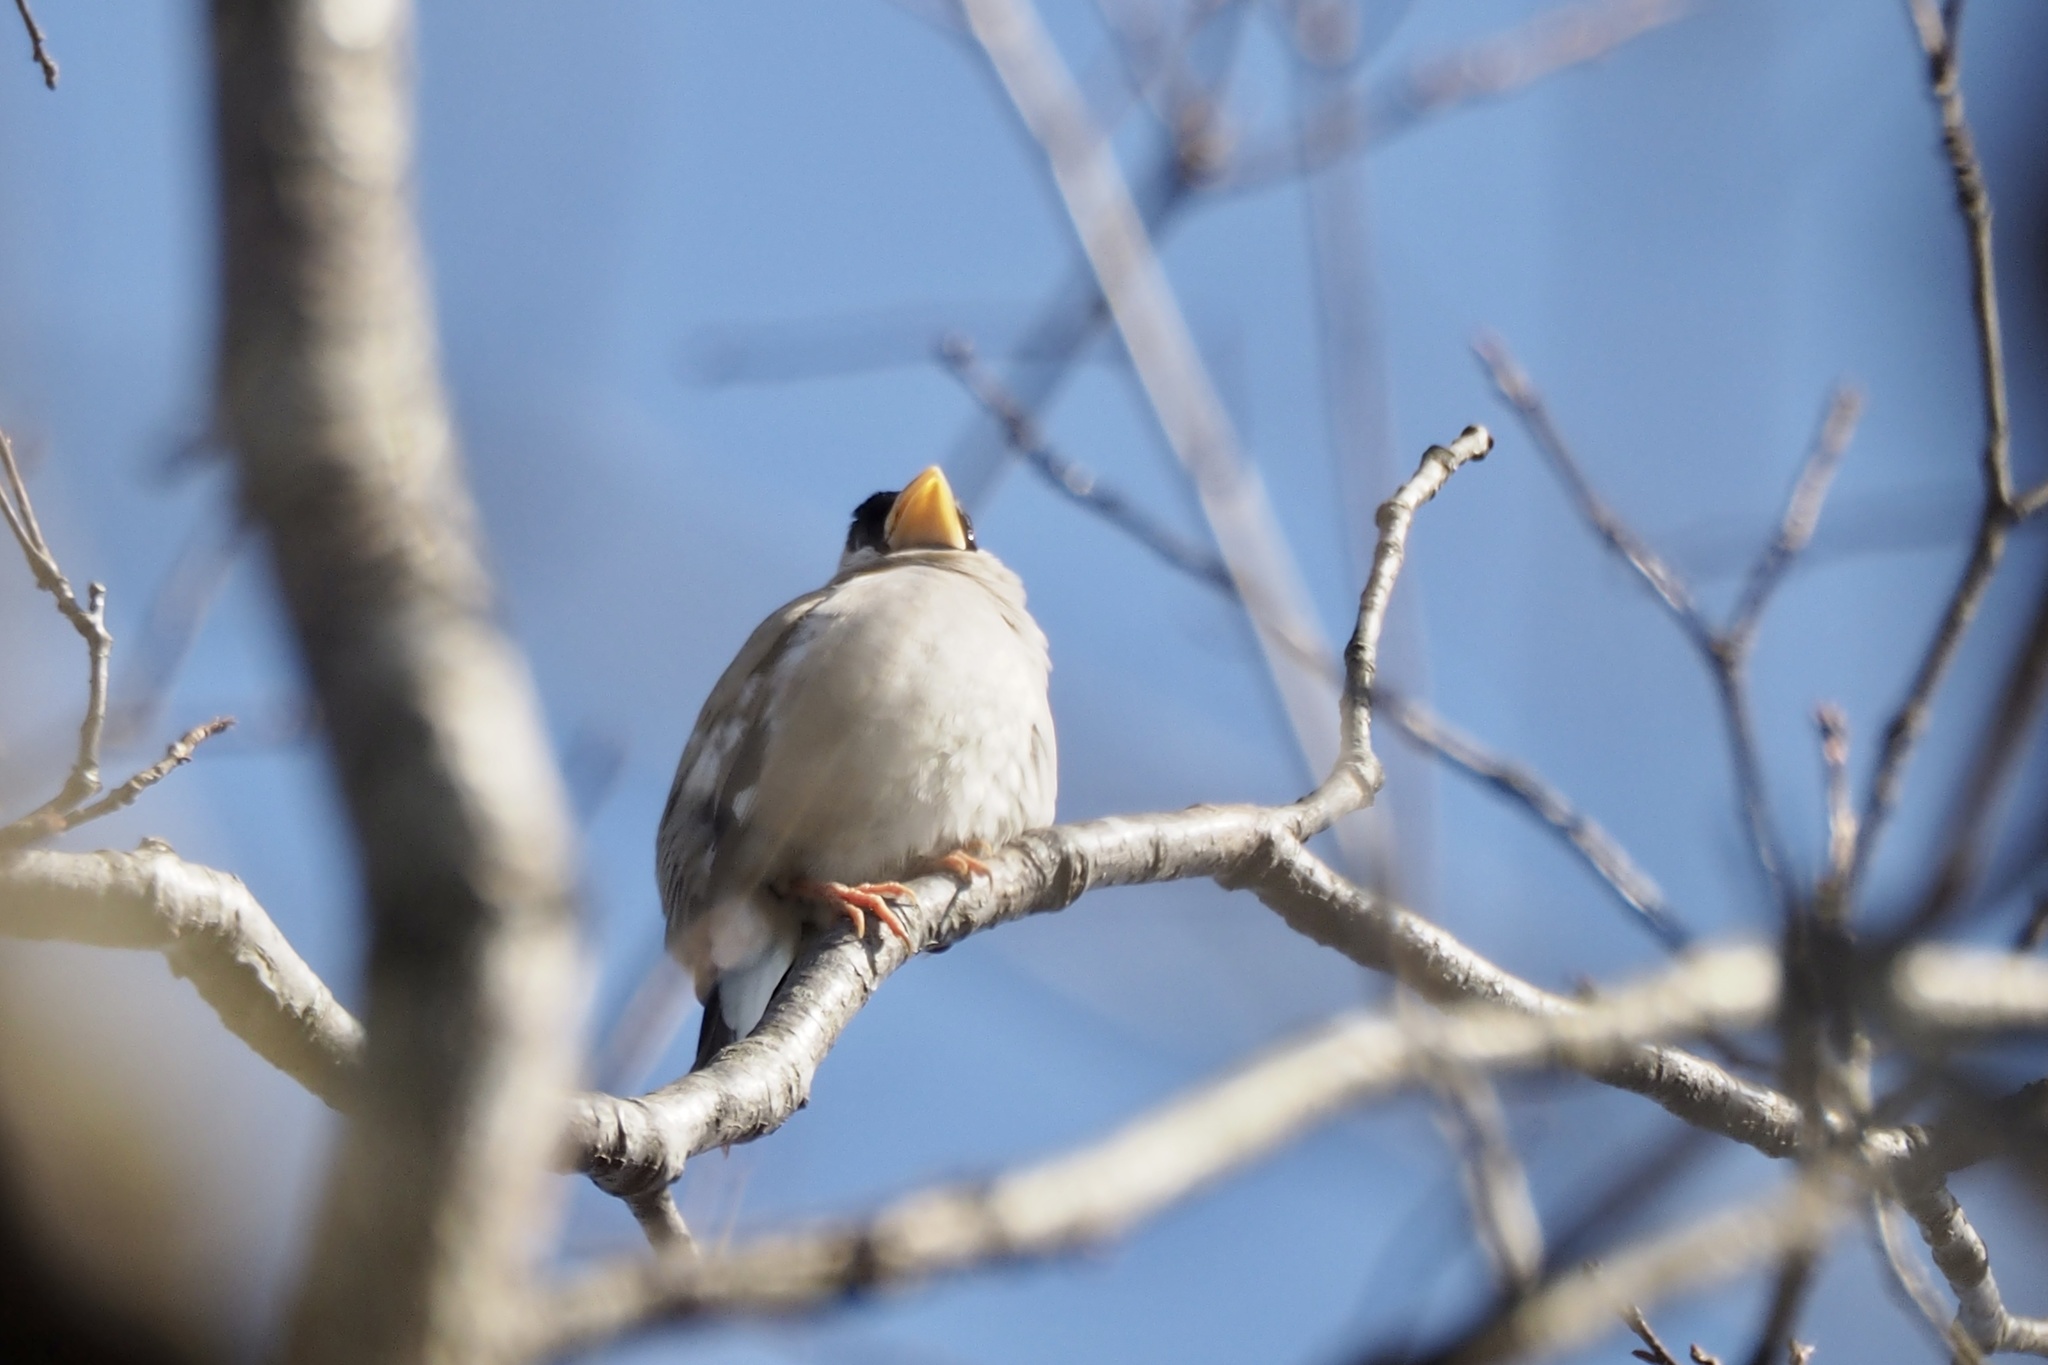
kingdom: Animalia
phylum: Chordata
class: Aves
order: Passeriformes
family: Fringillidae
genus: Eophona
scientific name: Eophona personata
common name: Japanese grosbeak
